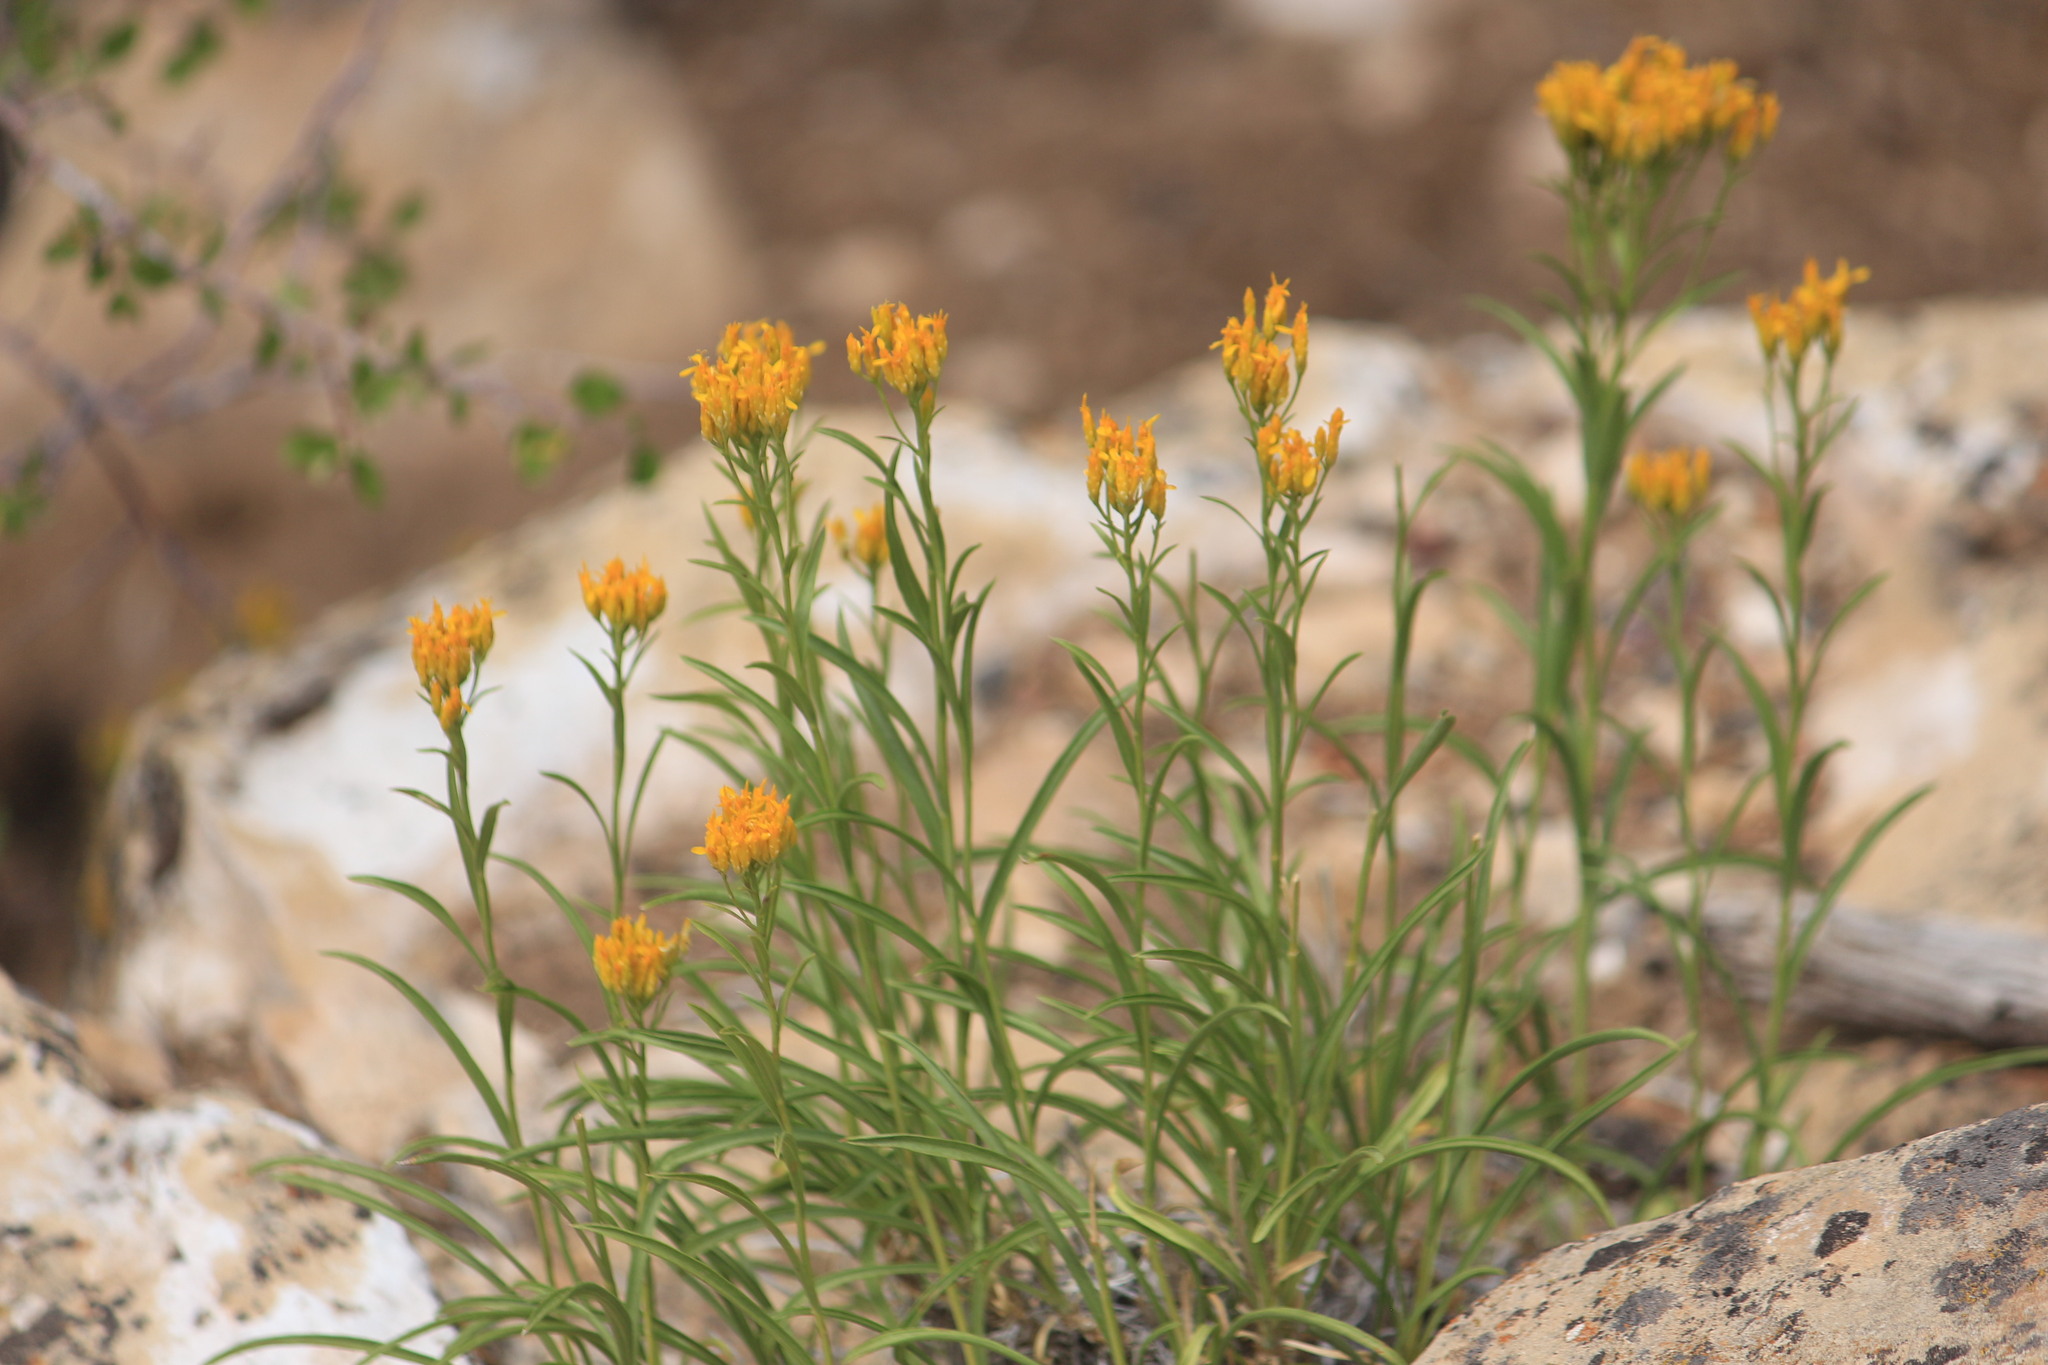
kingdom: Plantae
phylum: Tracheophyta
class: Magnoliopsida
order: Asterales
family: Asteraceae
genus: Petradoria
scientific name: Petradoria pumila
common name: Rock-goldenrod
